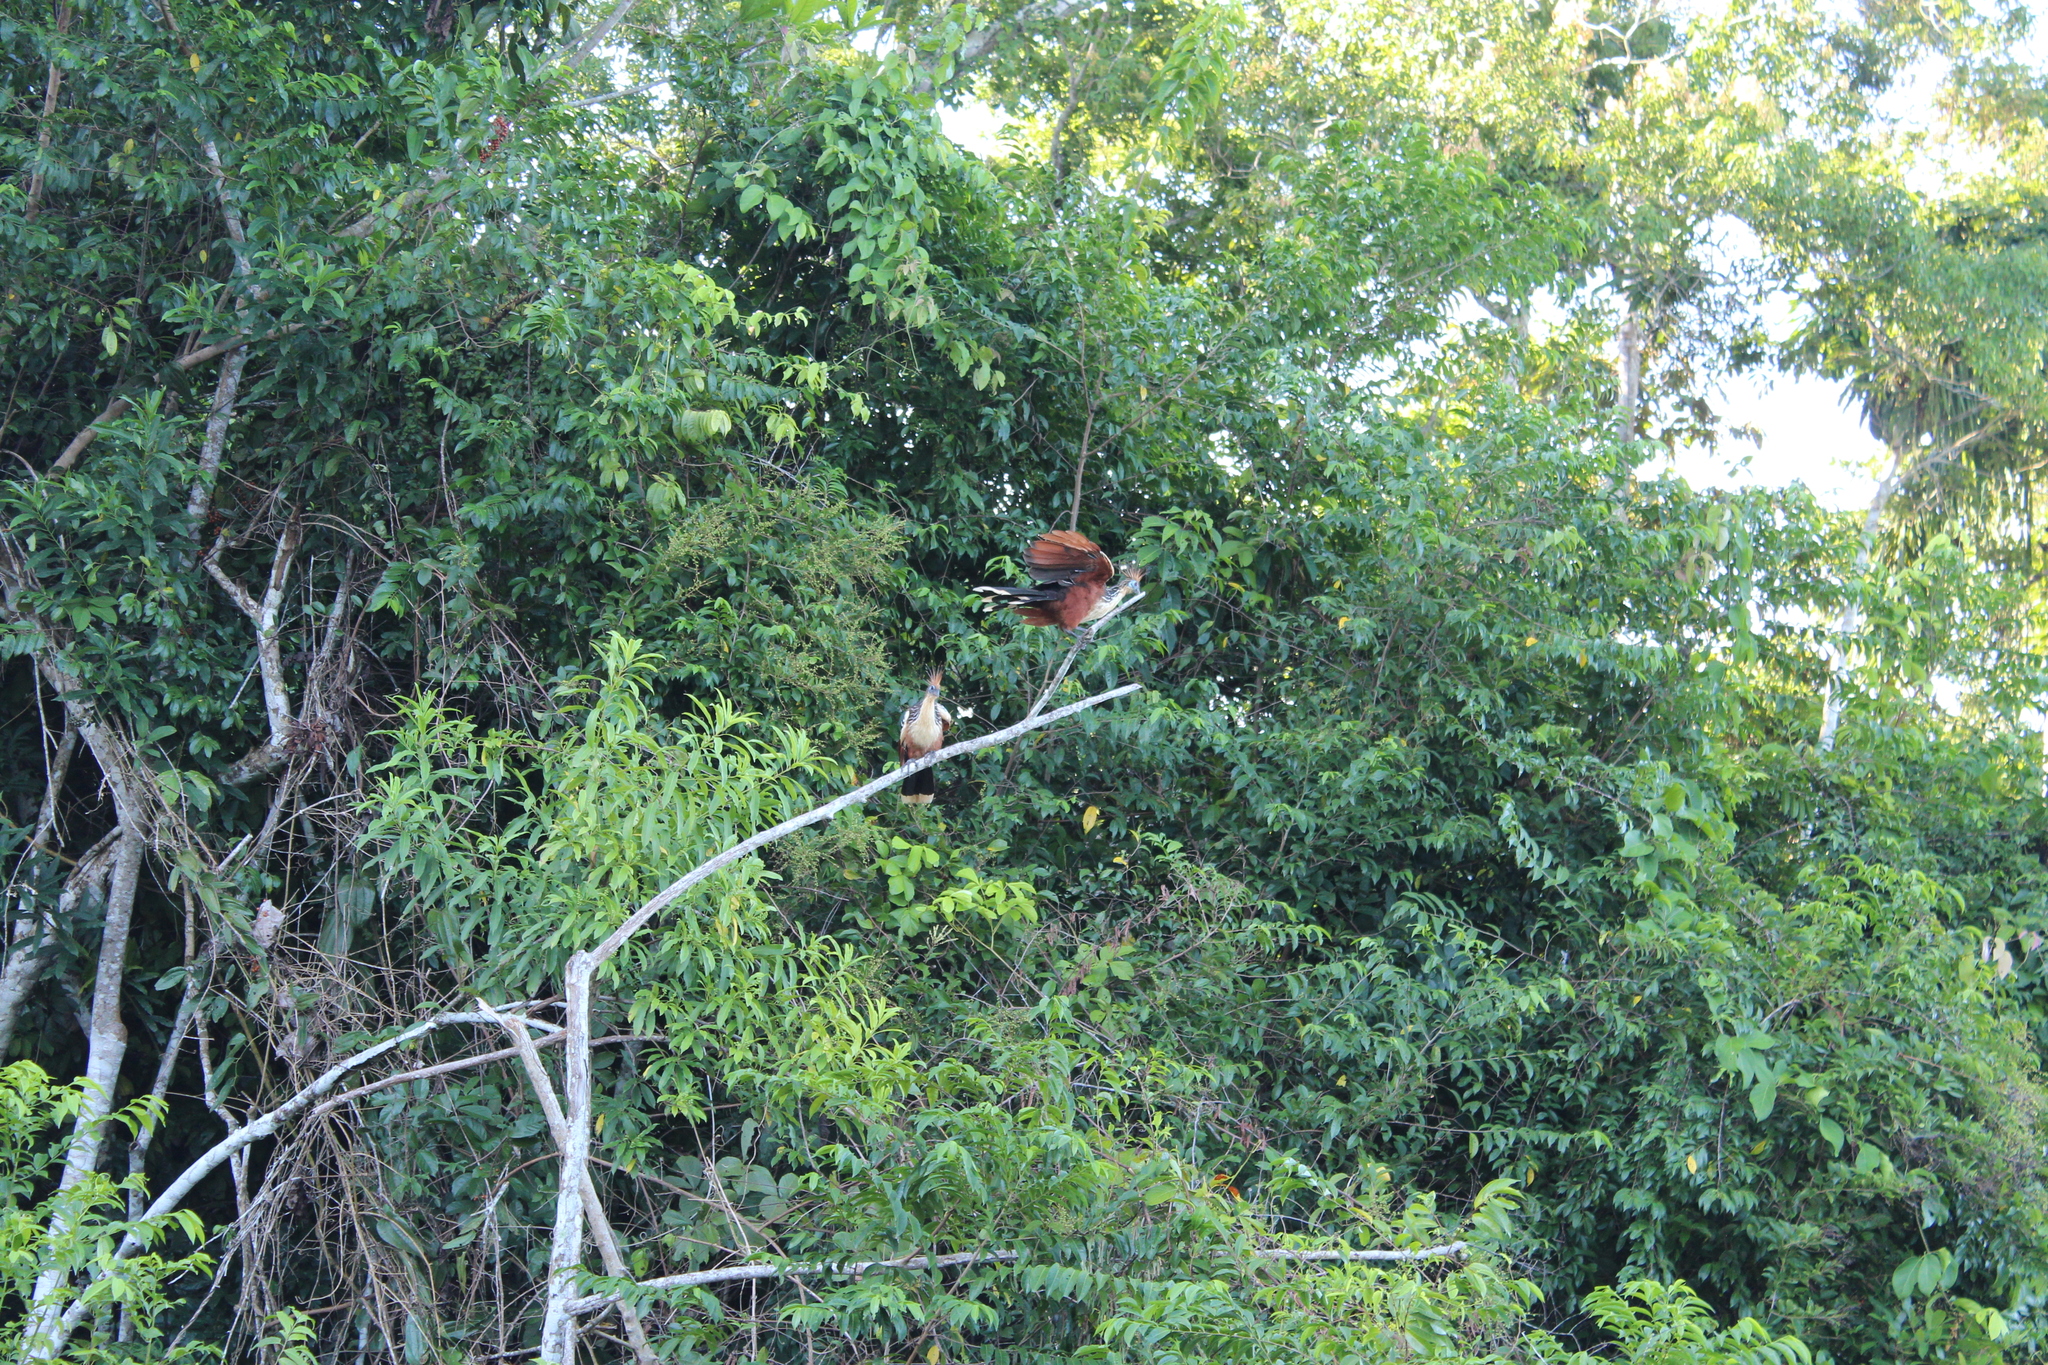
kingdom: Animalia
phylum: Chordata
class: Aves
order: Opisthocomiformes
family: Opisthocomidae
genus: Opisthocomus
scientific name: Opisthocomus hoazin
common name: Hoatzin
